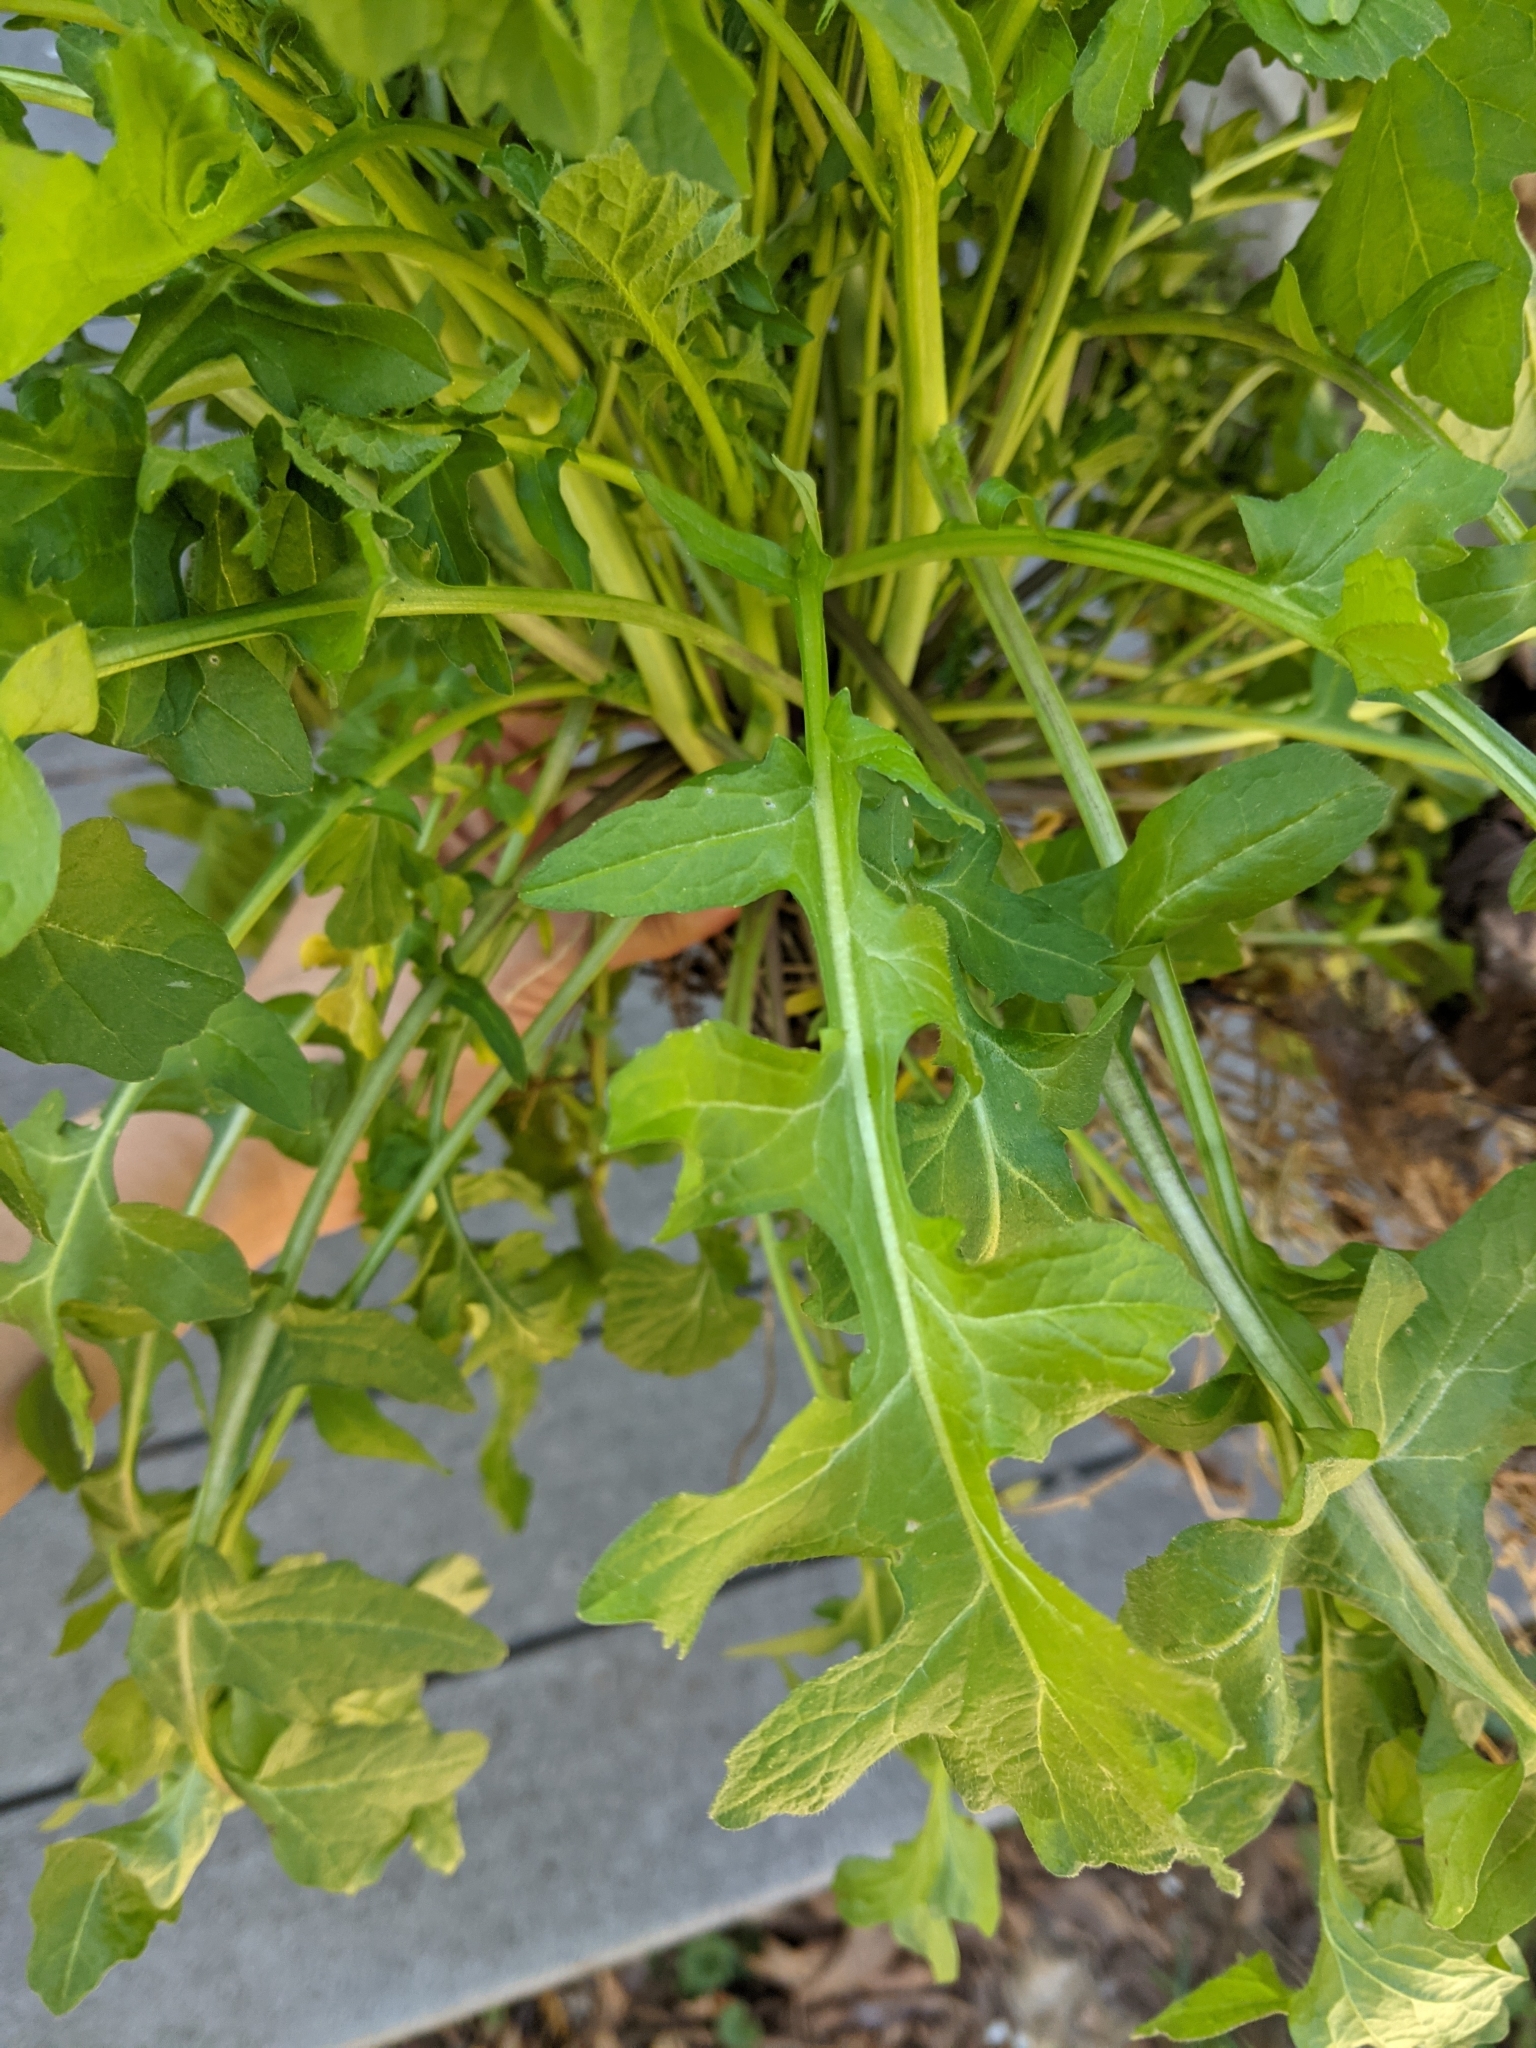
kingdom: Plantae
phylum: Tracheophyta
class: Magnoliopsida
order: Brassicales
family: Brassicaceae
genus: Barbarea
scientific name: Barbarea vulgaris
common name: Cressy-greens
